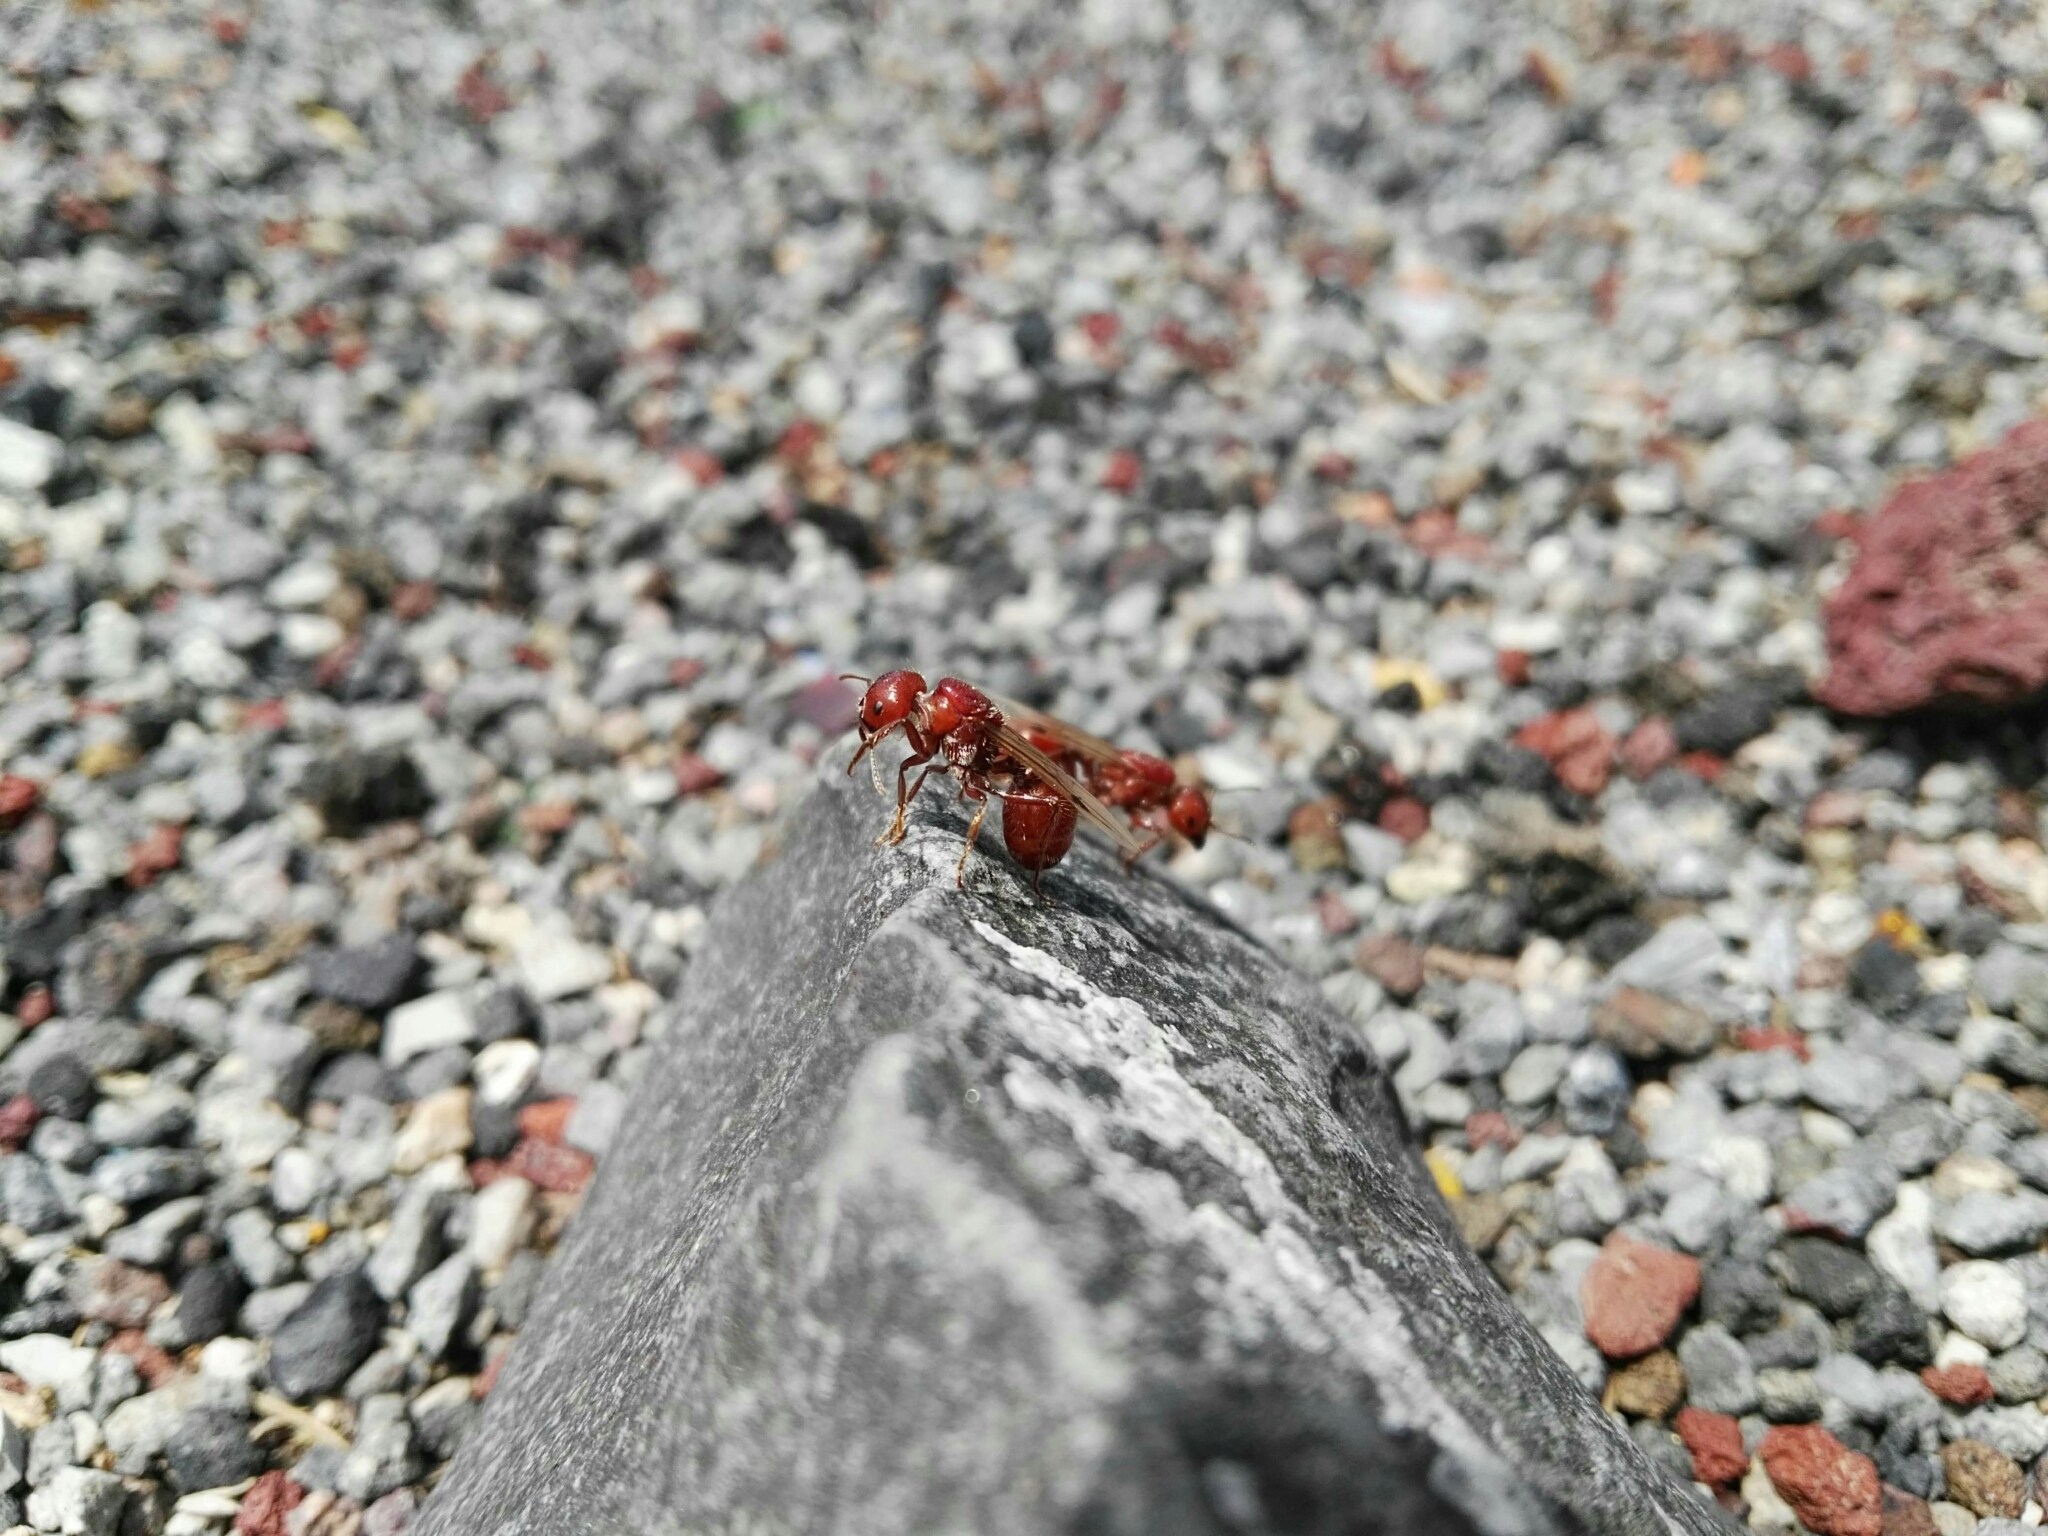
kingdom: Animalia
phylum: Arthropoda
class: Insecta
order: Hymenoptera
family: Formicidae
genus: Pogonomyrmex
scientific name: Pogonomyrmex barbatus
